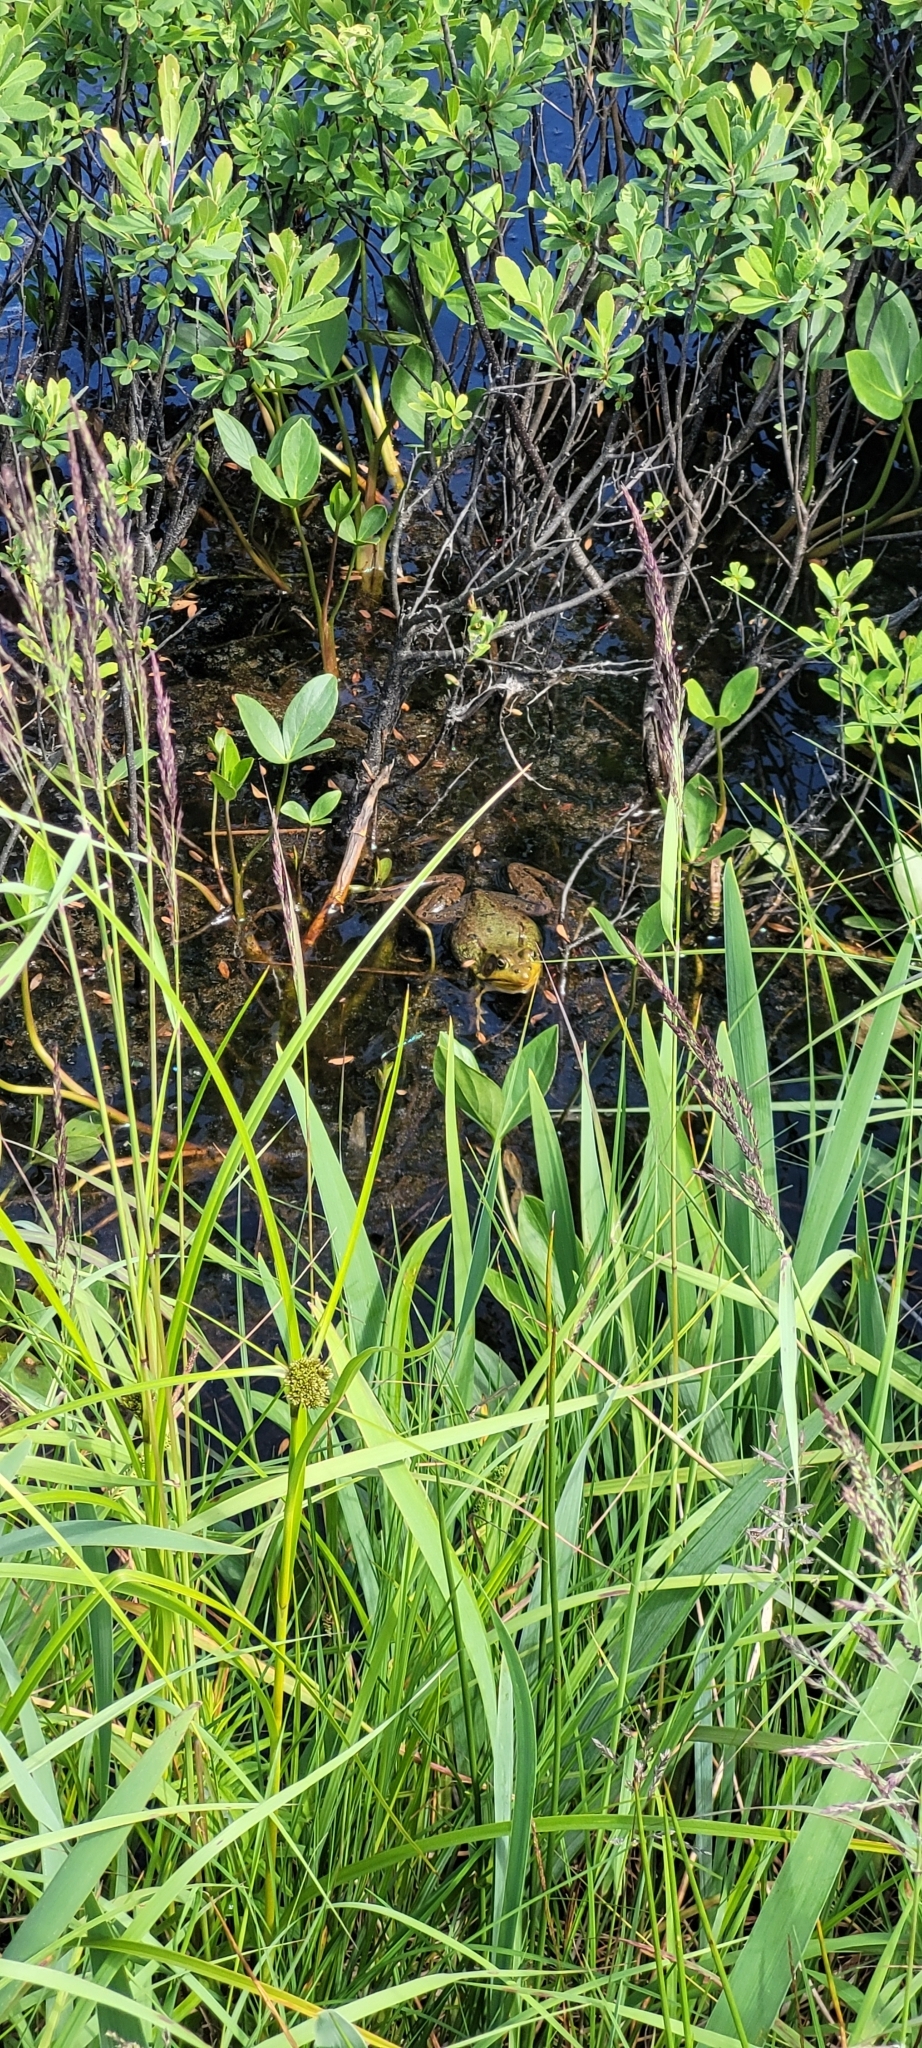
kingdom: Animalia
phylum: Chordata
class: Amphibia
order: Anura
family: Ranidae
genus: Lithobates
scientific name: Lithobates clamitans
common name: Green frog
